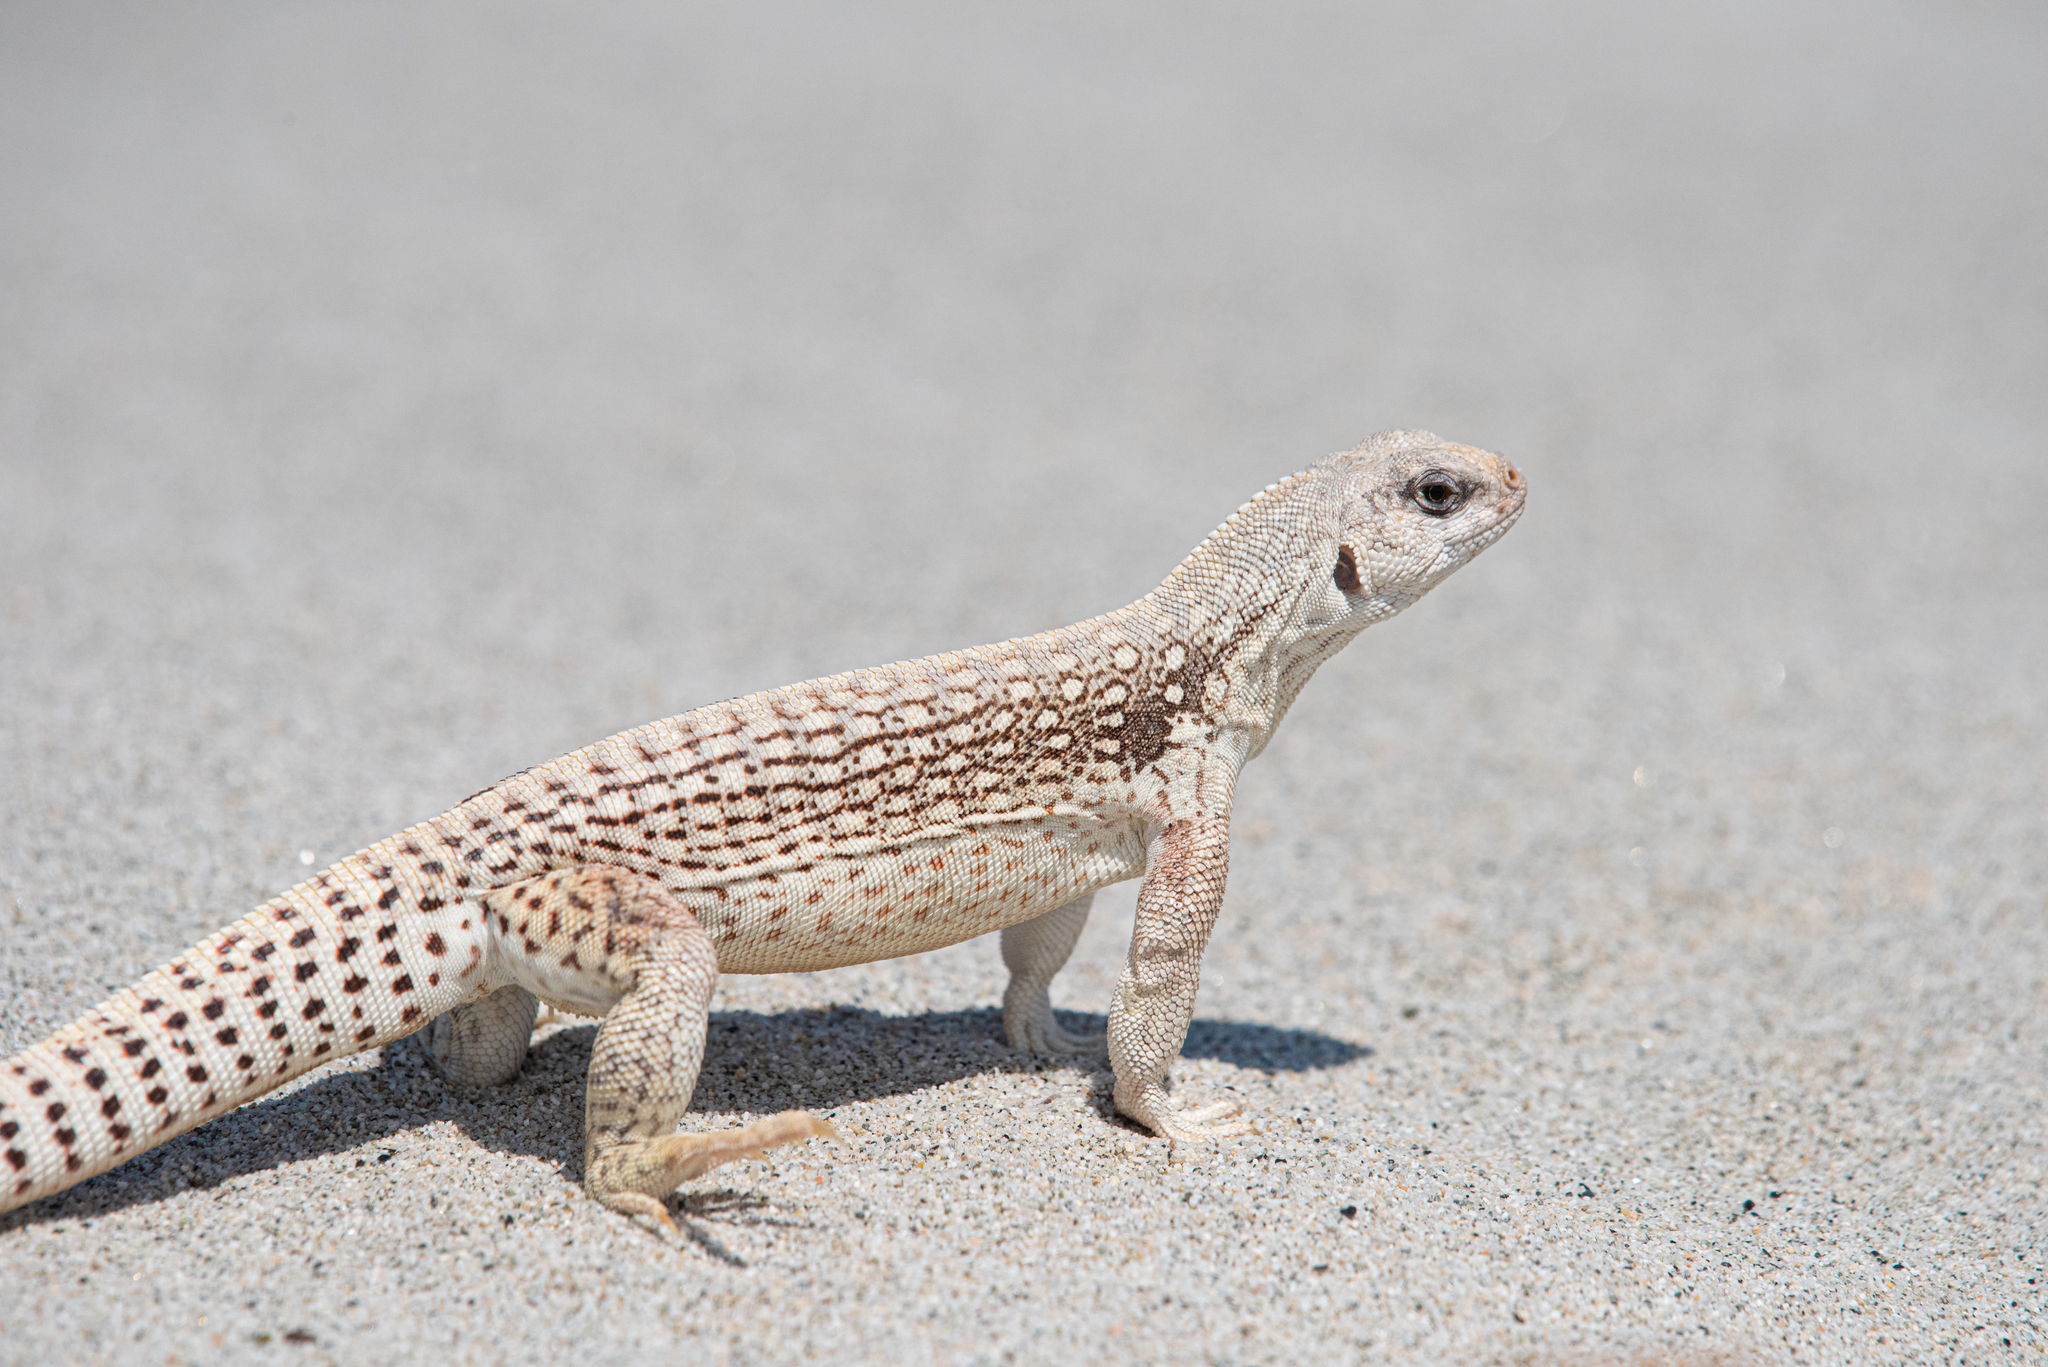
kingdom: Animalia
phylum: Chordata
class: Squamata
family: Iguanidae
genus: Dipsosaurus
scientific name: Dipsosaurus dorsalis
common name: Desert iguana
